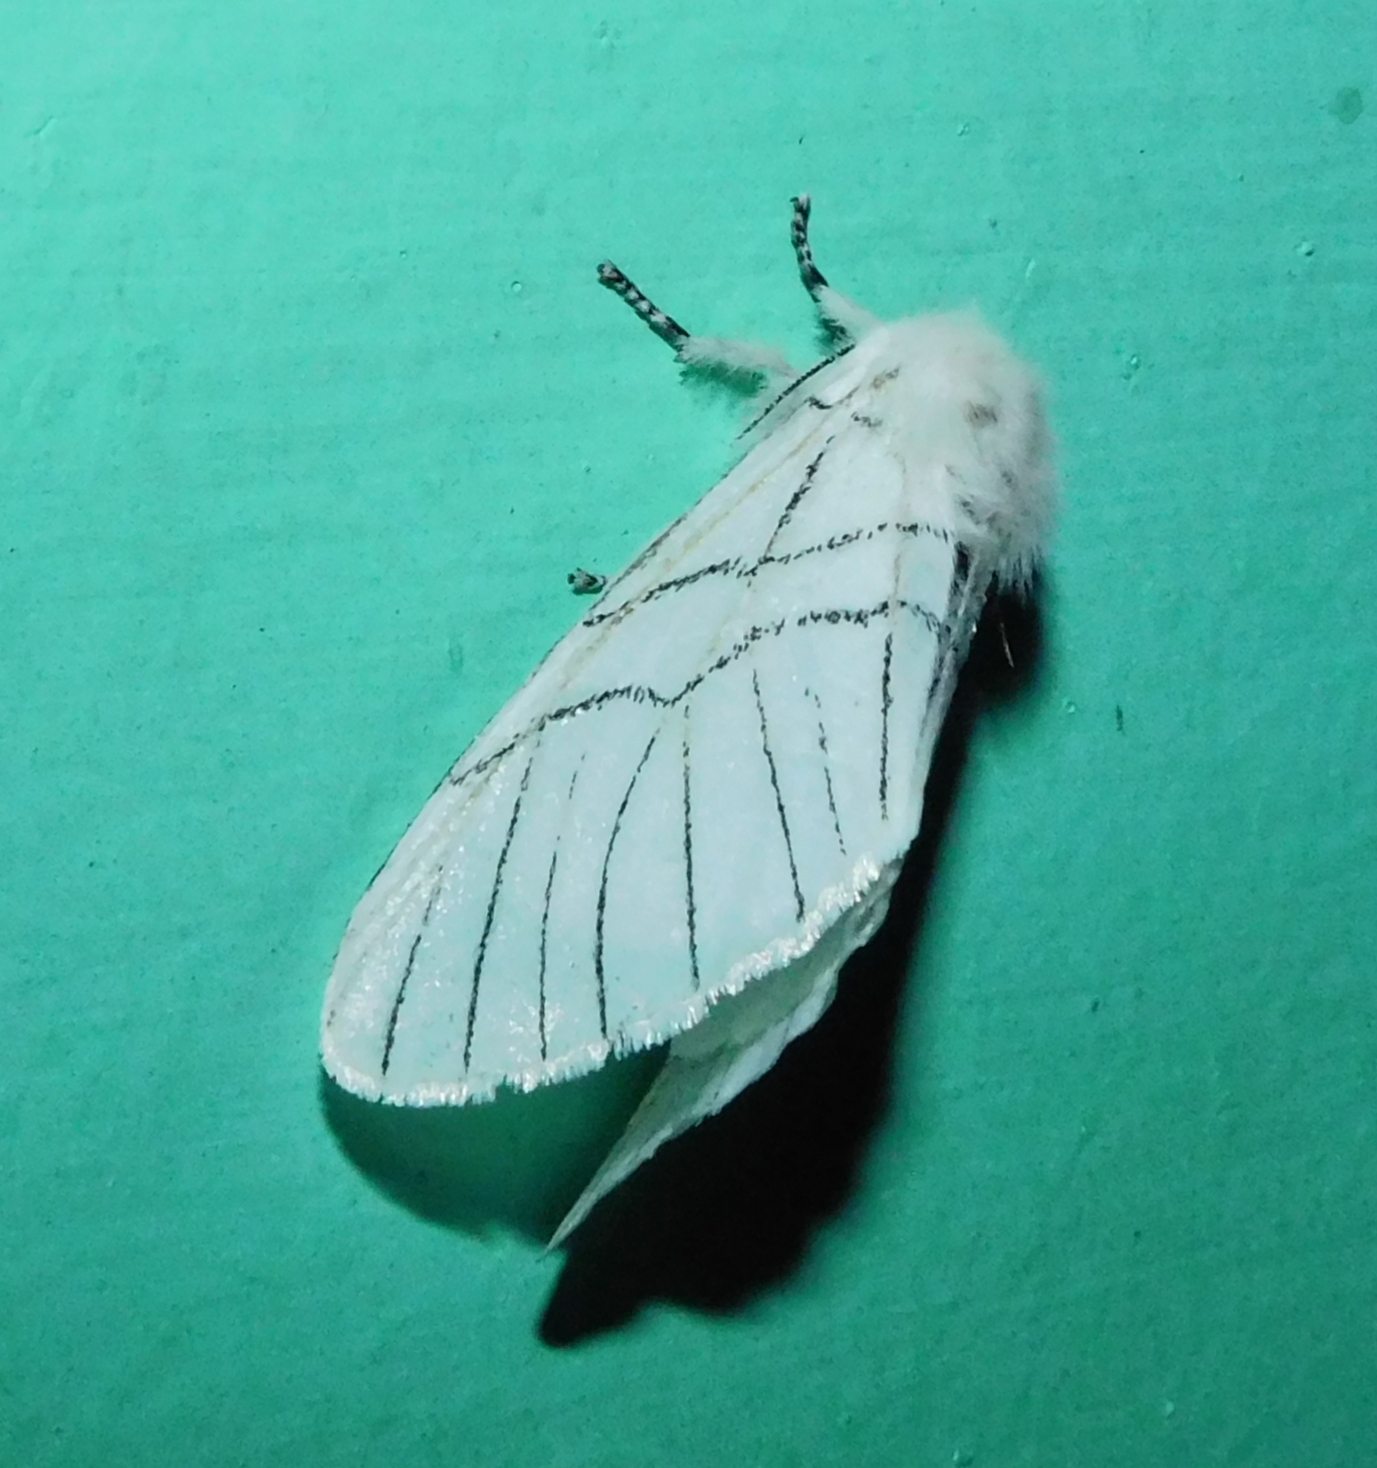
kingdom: Animalia
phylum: Arthropoda
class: Insecta
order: Lepidoptera
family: Notodontidae
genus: Oligoclona
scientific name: Oligoclona chrysolopha
